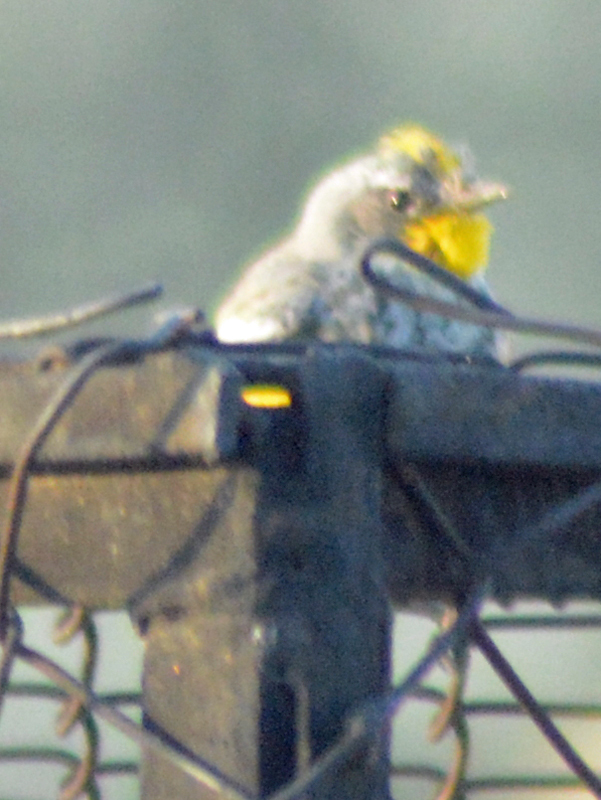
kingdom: Animalia
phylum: Chordata
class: Aves
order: Passeriformes
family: Parulidae
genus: Setophaga
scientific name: Setophaga coronata
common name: Myrtle warbler
